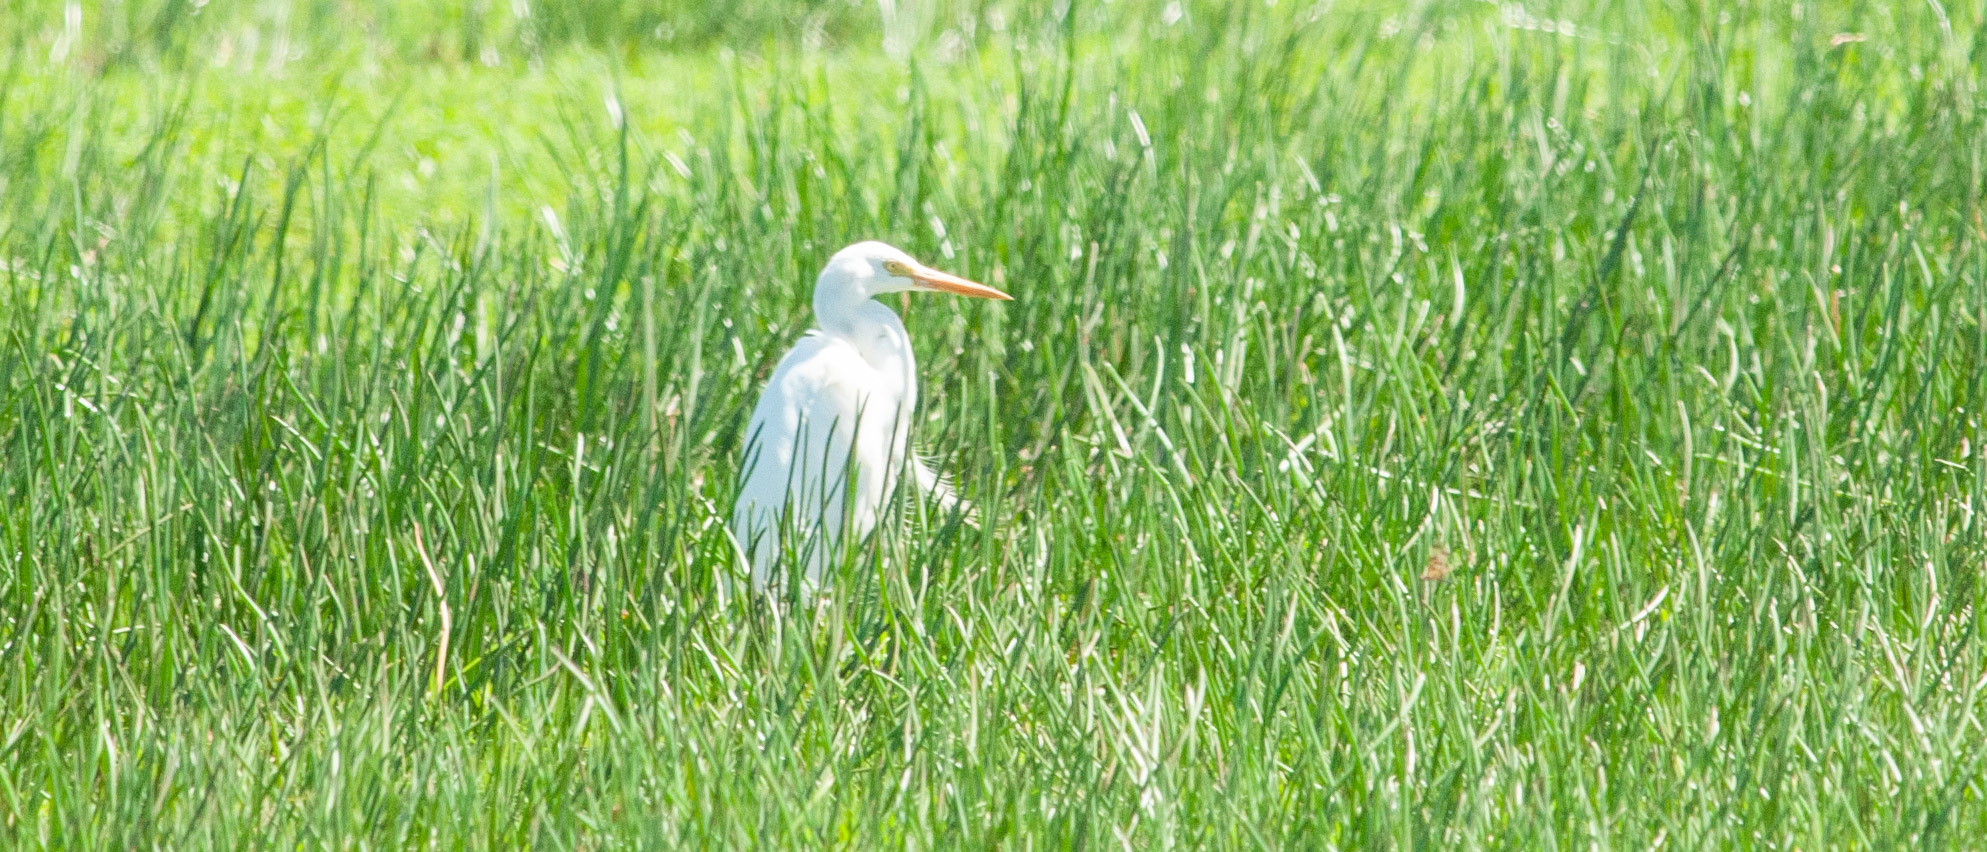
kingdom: Animalia
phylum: Chordata
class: Aves
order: Pelecaniformes
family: Ardeidae
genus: Egretta
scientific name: Egretta intermedia
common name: Intermediate egret
